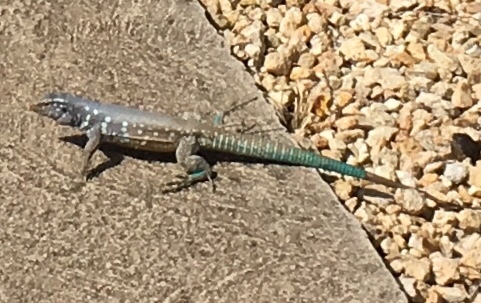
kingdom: Animalia
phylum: Chordata
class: Squamata
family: Teiidae
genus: Cnemidophorus
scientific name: Cnemidophorus ruthveni
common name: Bonaire whiptail
